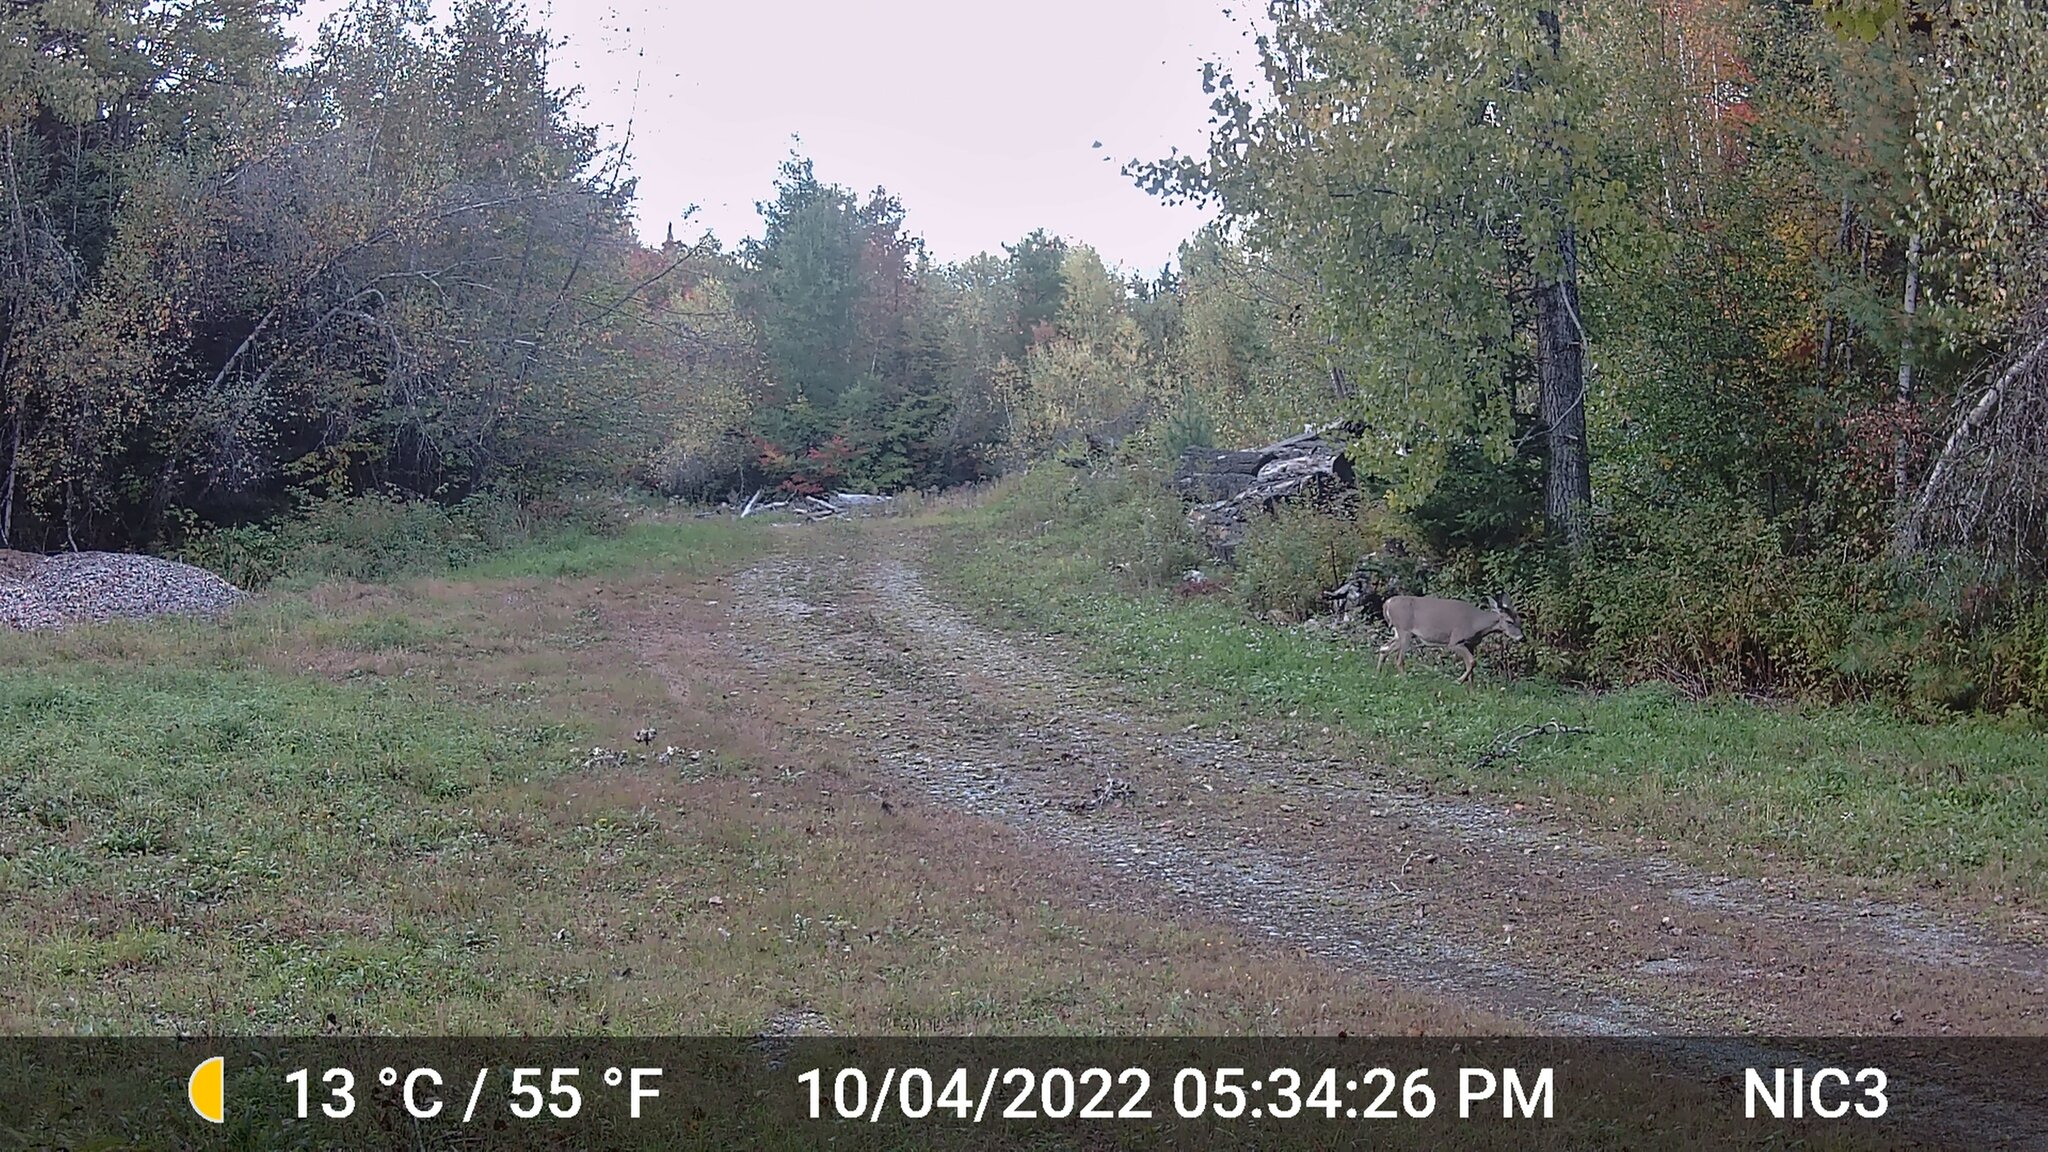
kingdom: Animalia
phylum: Chordata
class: Mammalia
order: Artiodactyla
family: Cervidae
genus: Odocoileus
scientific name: Odocoileus virginianus
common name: White-tailed deer
